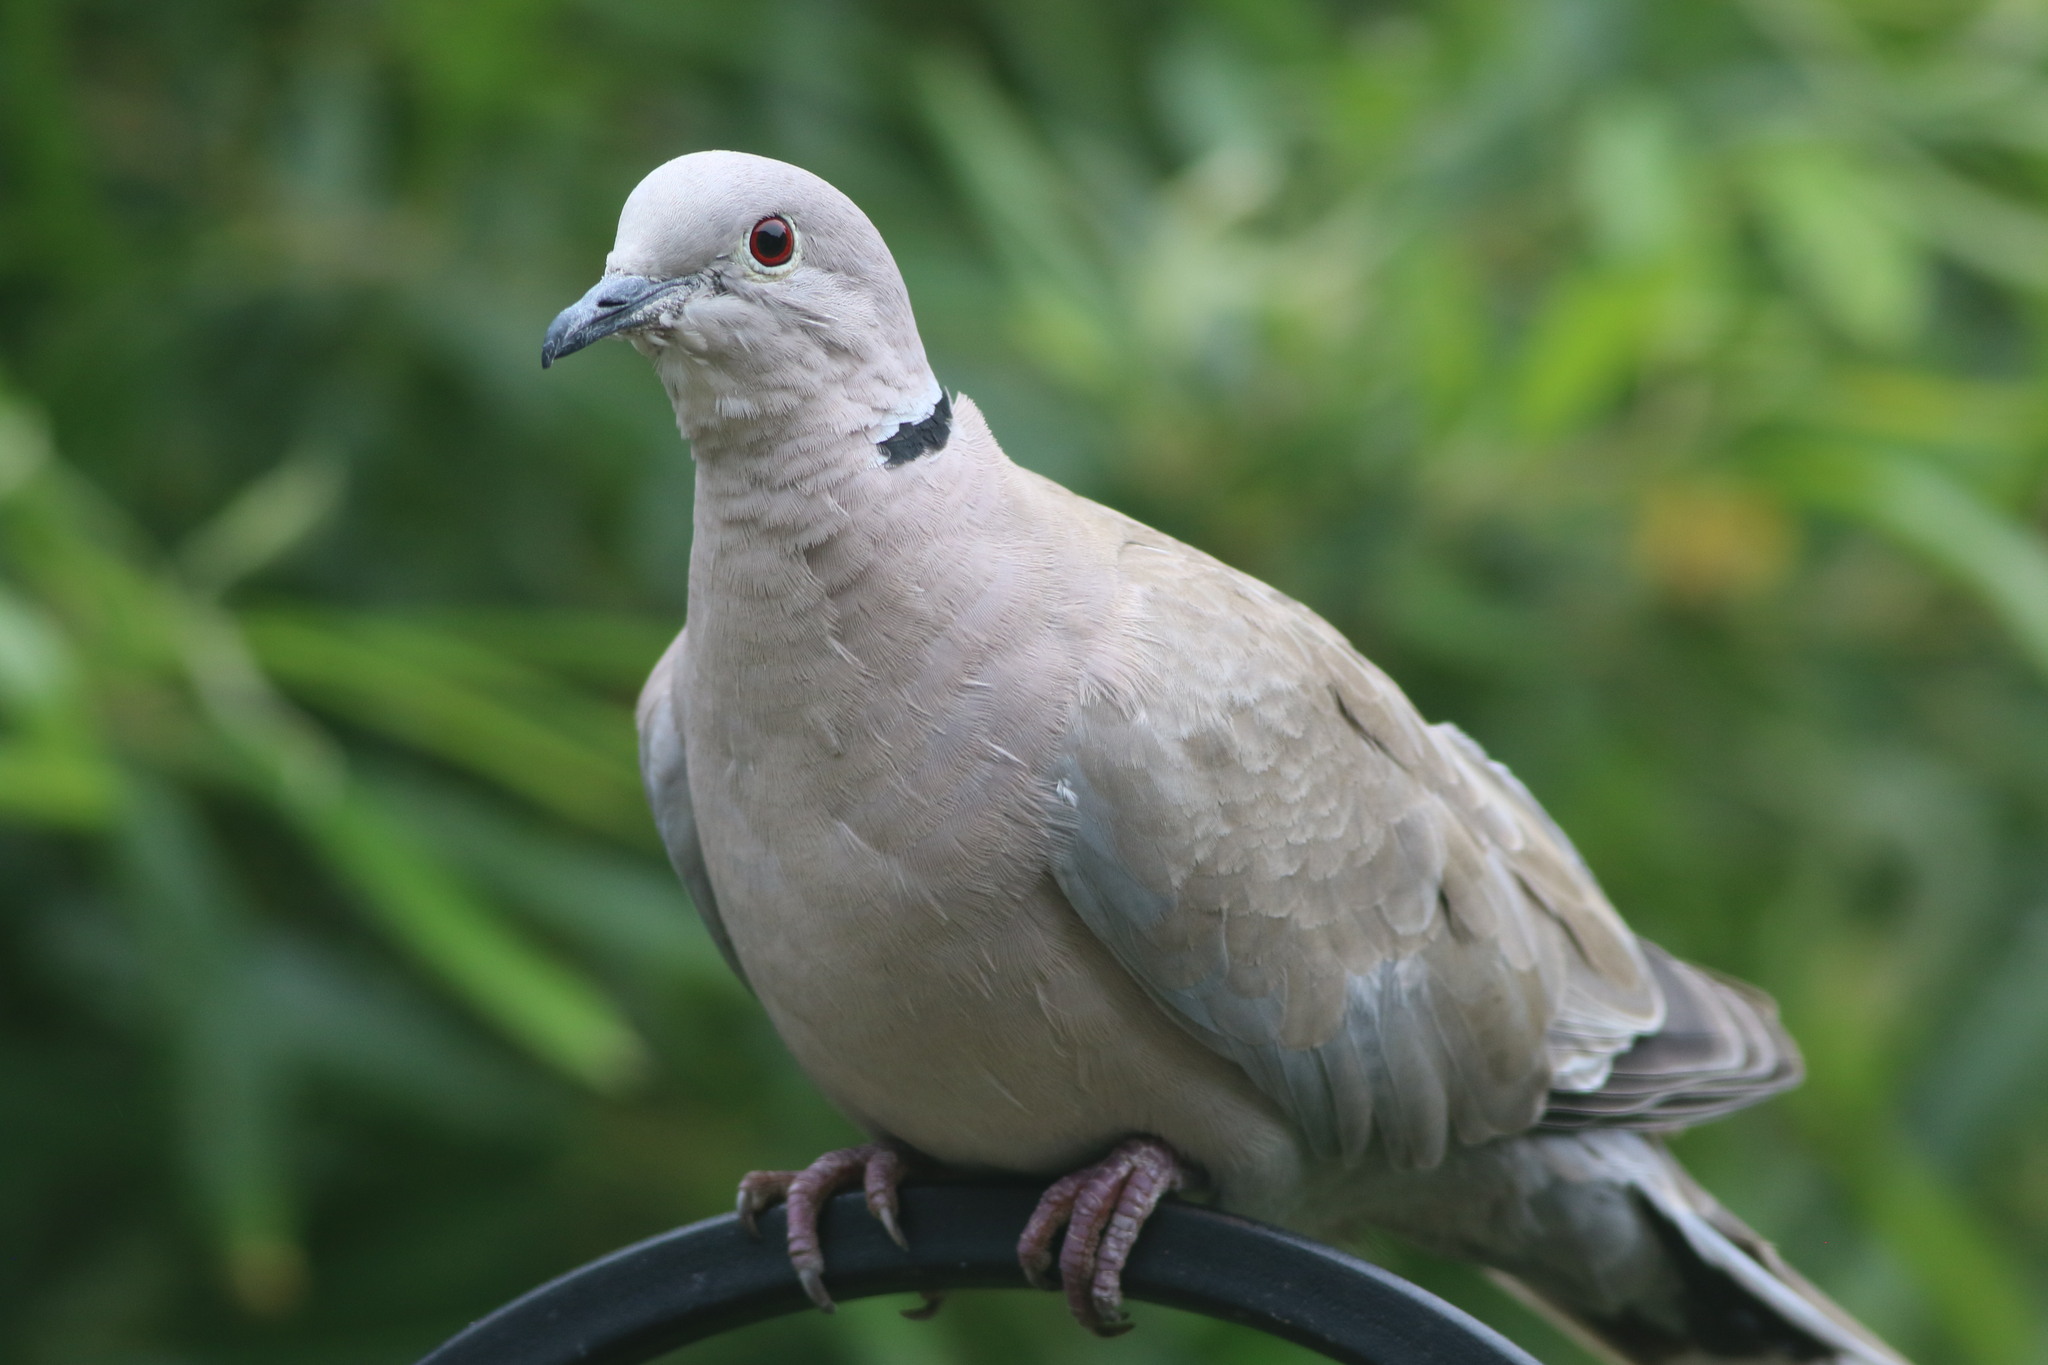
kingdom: Animalia
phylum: Chordata
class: Aves
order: Columbiformes
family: Columbidae
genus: Streptopelia
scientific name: Streptopelia decaocto
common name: Eurasian collared dove
